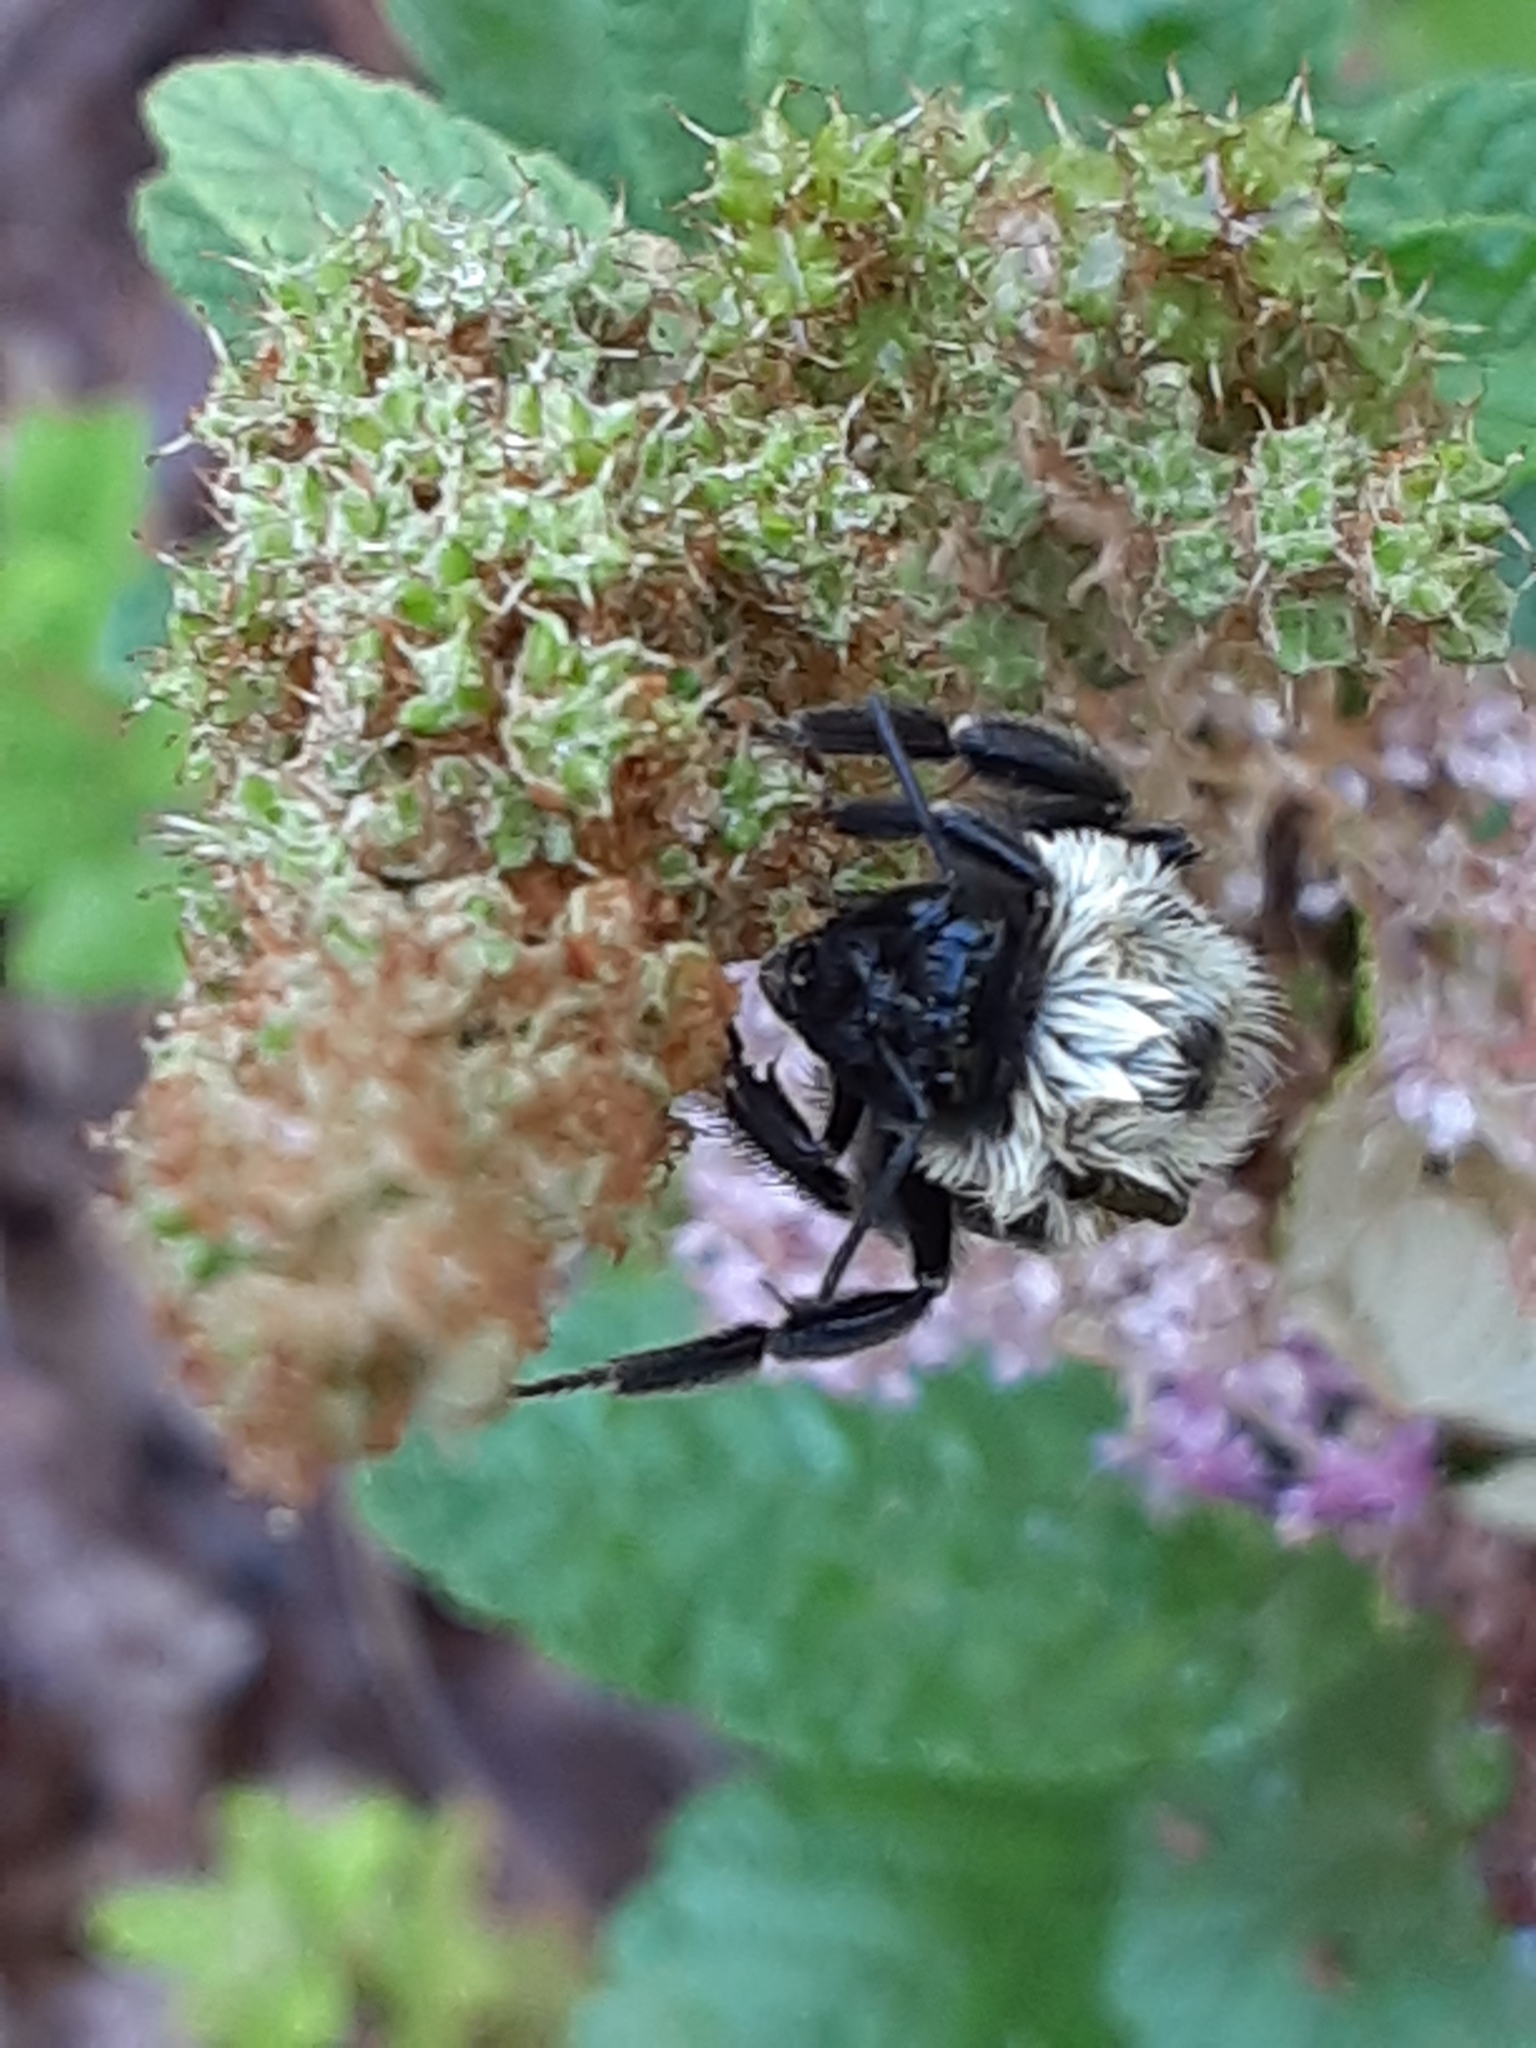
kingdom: Animalia
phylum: Arthropoda
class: Insecta
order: Hymenoptera
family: Apidae
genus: Bombus
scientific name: Bombus griseocollis
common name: Brown-belted bumble bee
